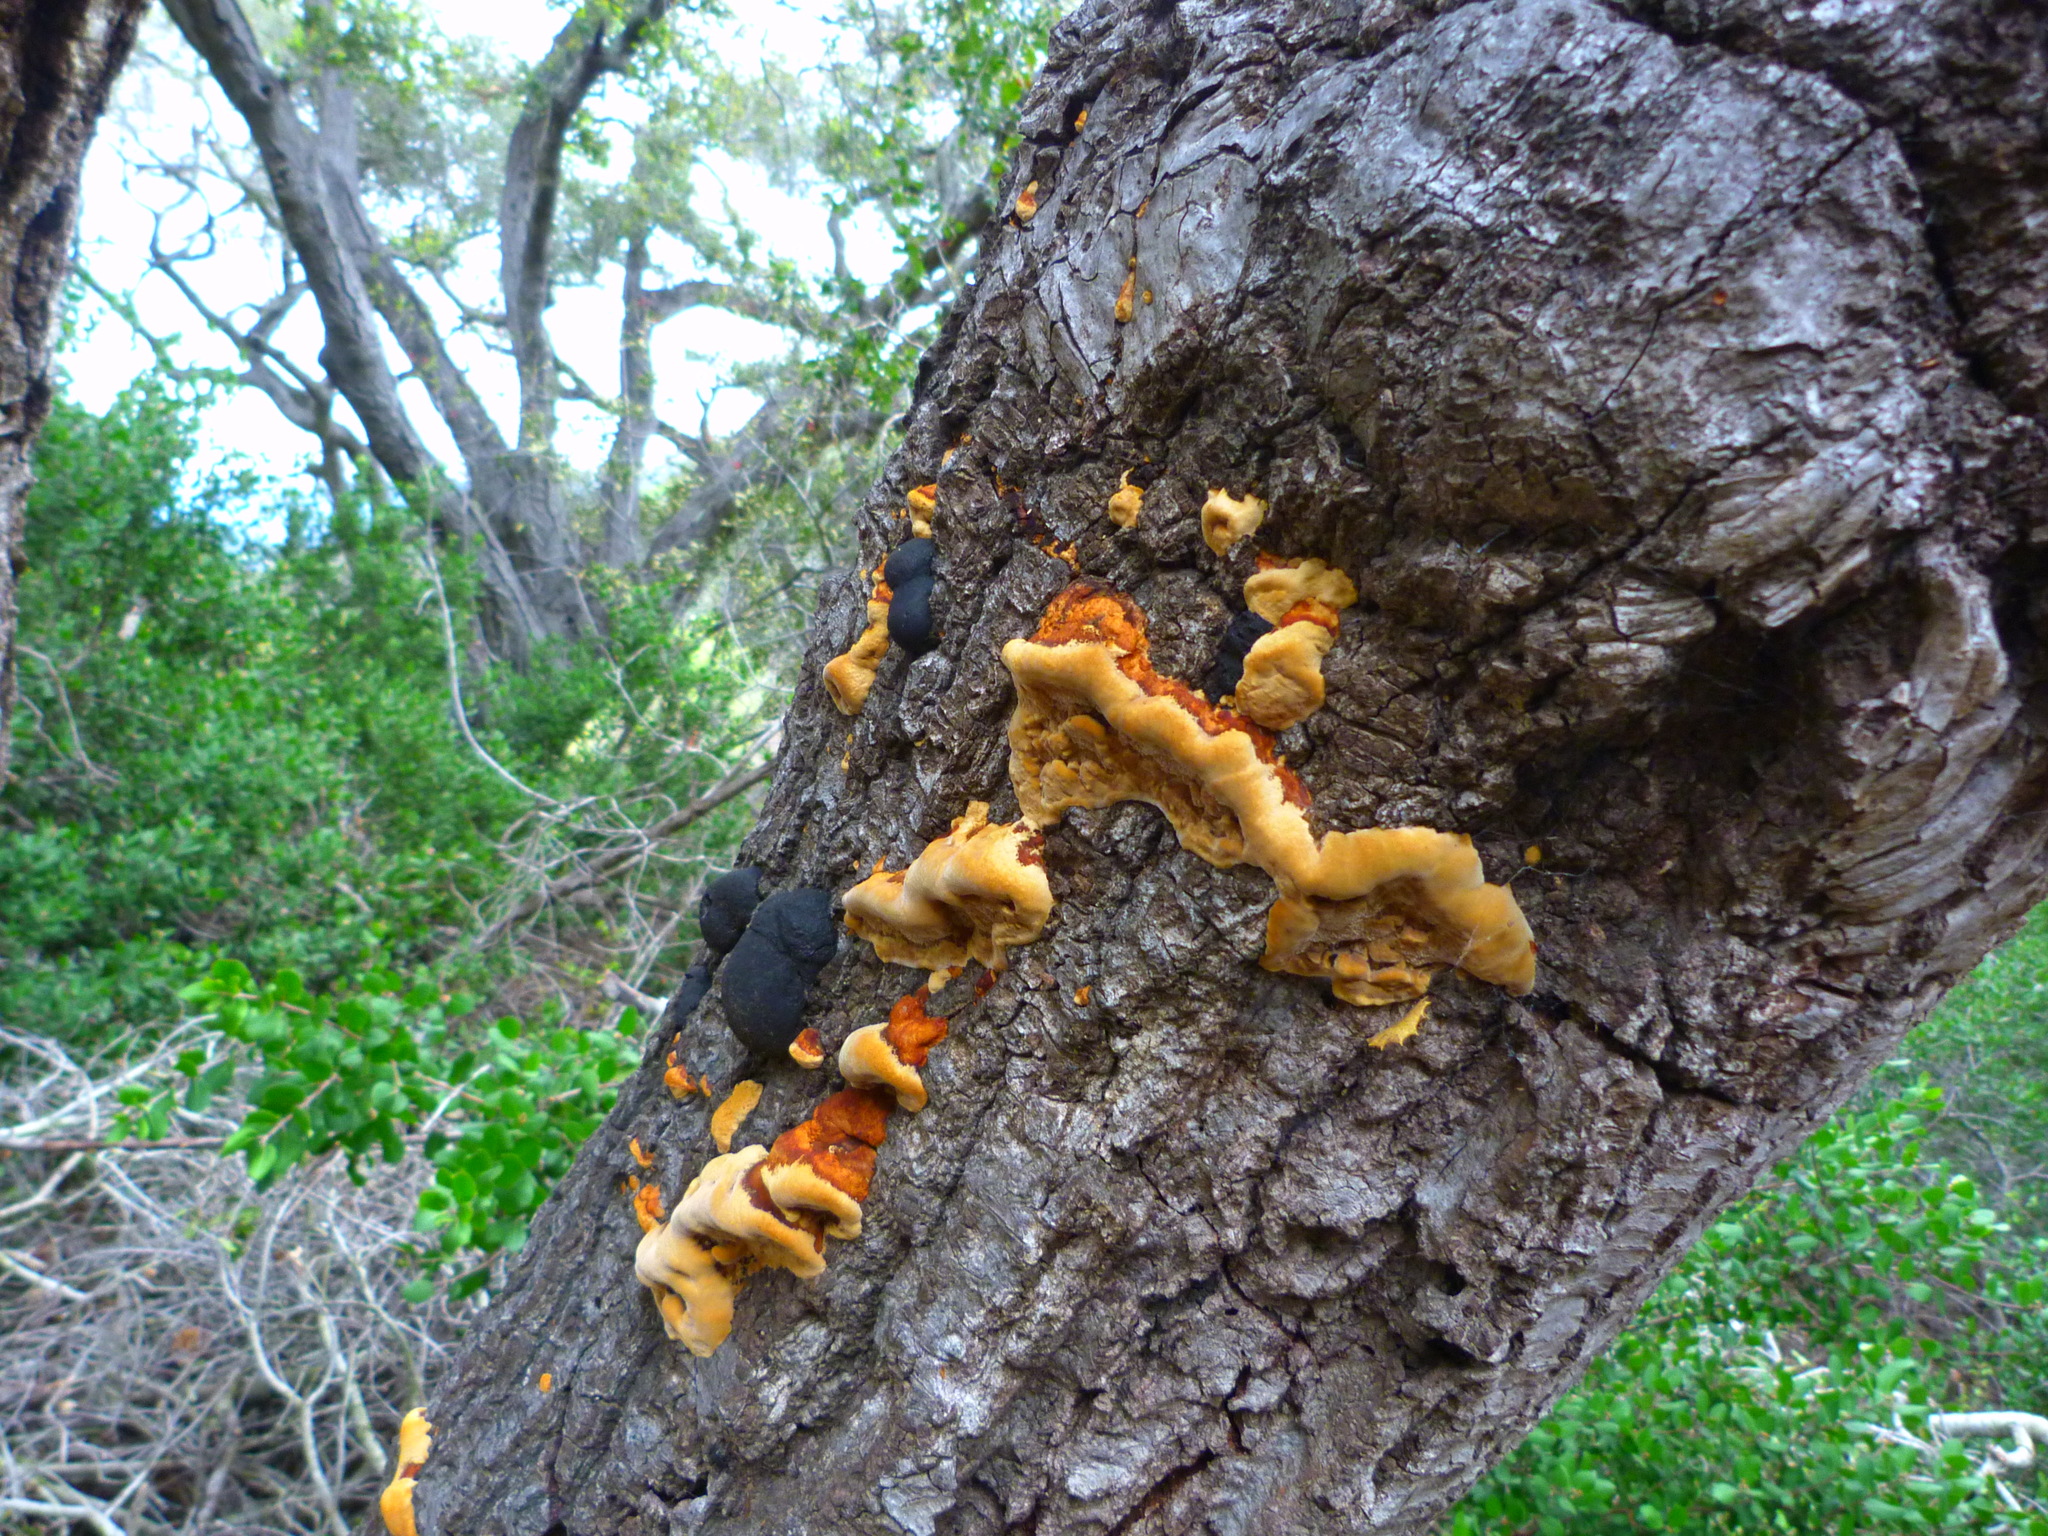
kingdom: Fungi
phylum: Basidiomycota
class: Agaricomycetes
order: Hymenochaetales
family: Hymenochaetaceae
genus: Phellinus
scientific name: Phellinus gilvus
